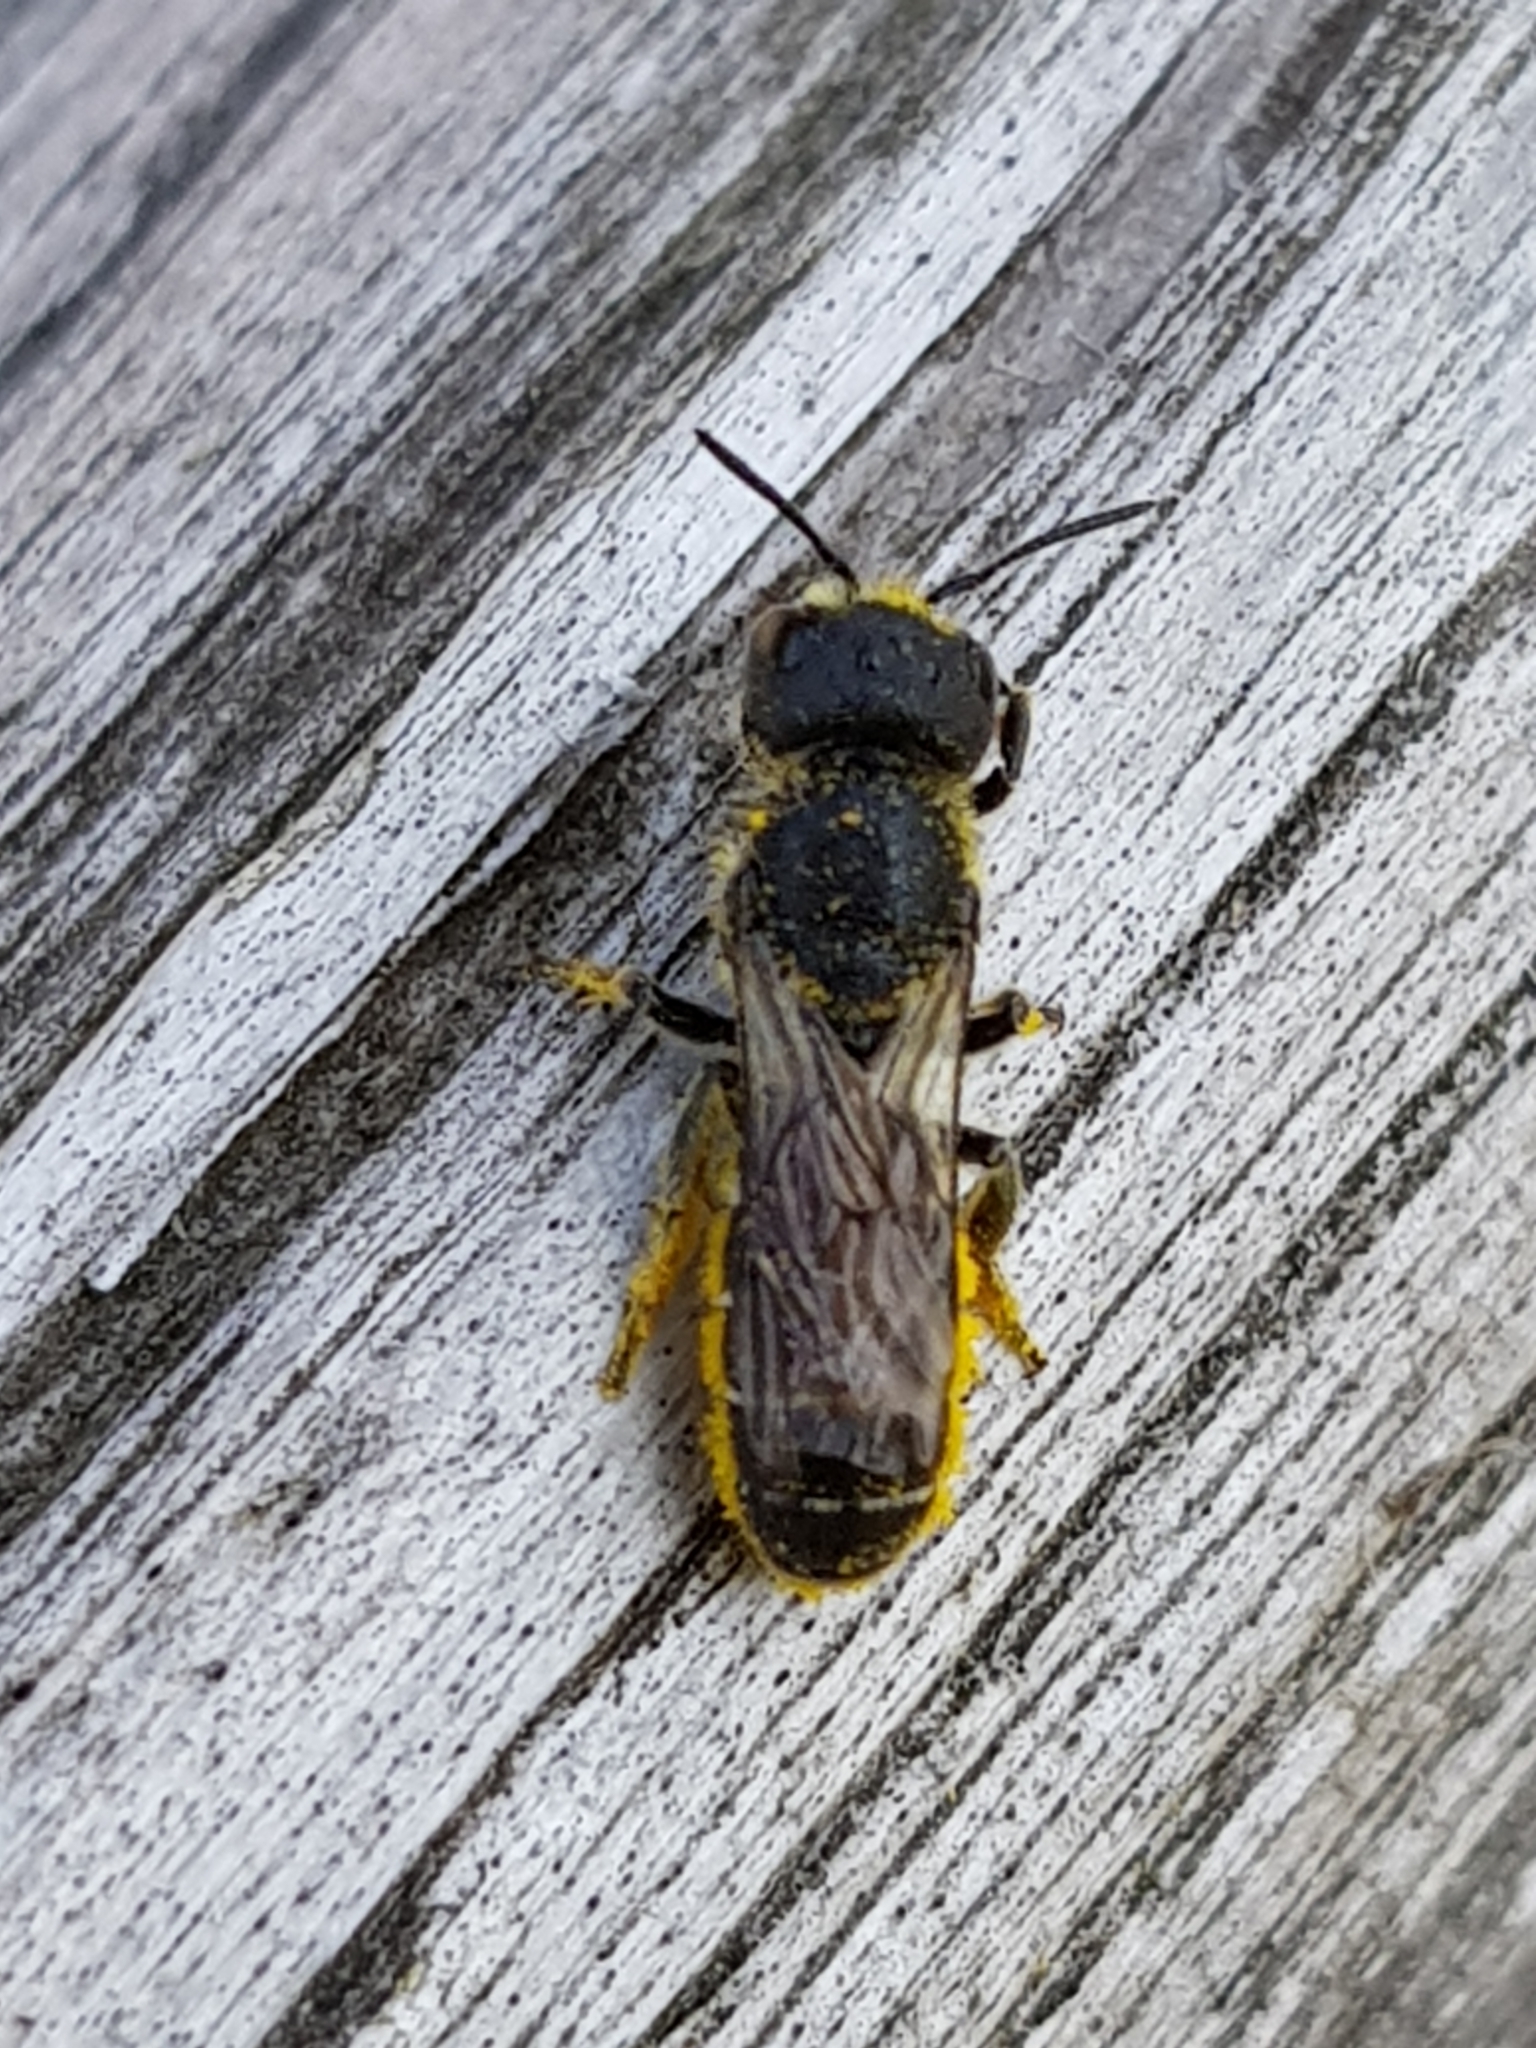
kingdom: Animalia
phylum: Arthropoda
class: Insecta
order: Hymenoptera
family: Megachilidae
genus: Heriades
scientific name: Heriades truncorum
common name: Ridge-saddled carpenter bee
